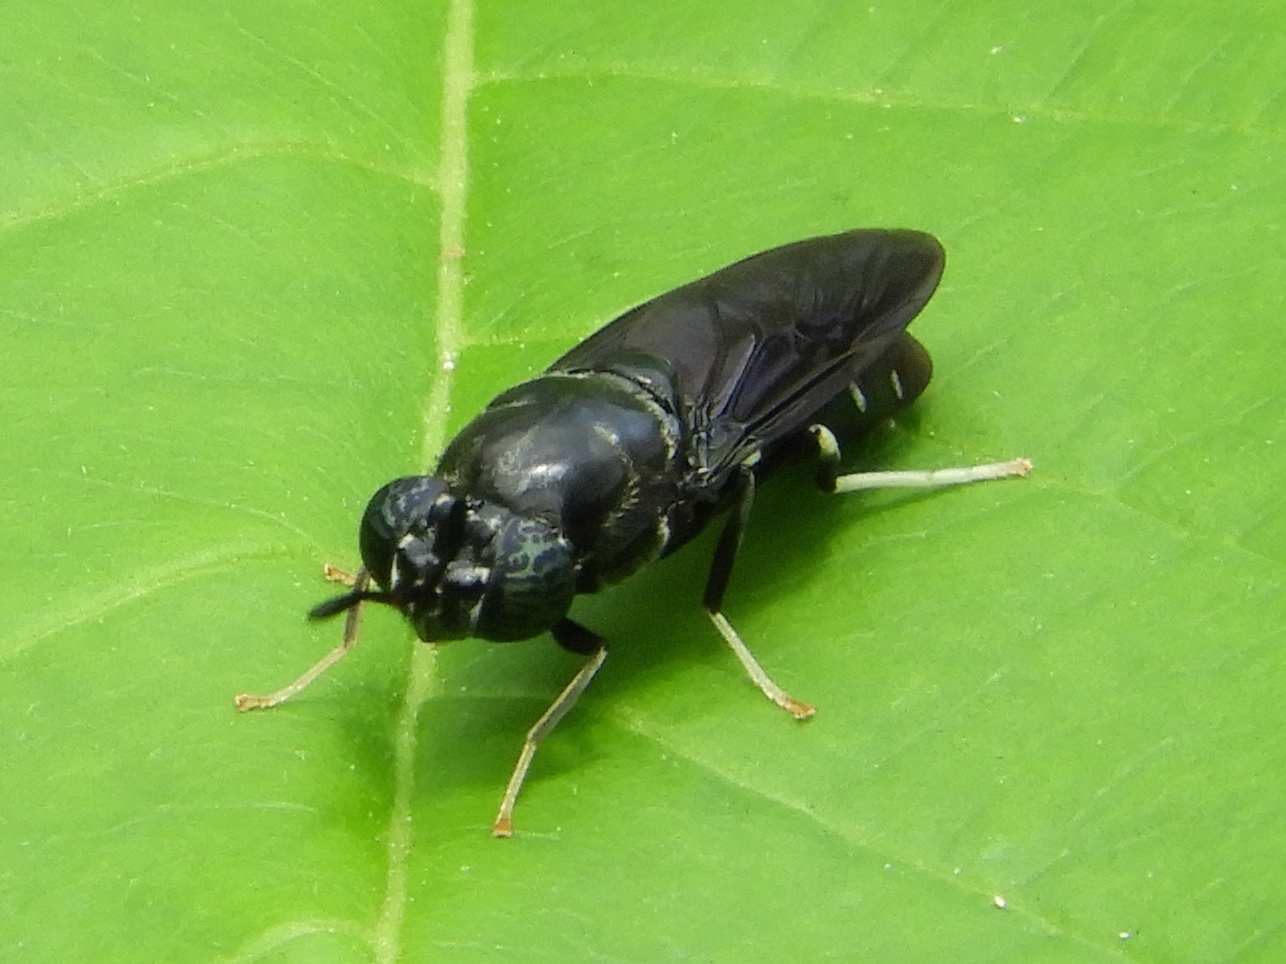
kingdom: Animalia
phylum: Arthropoda
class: Insecta
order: Diptera
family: Stratiomyidae
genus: Hermetia
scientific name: Hermetia
